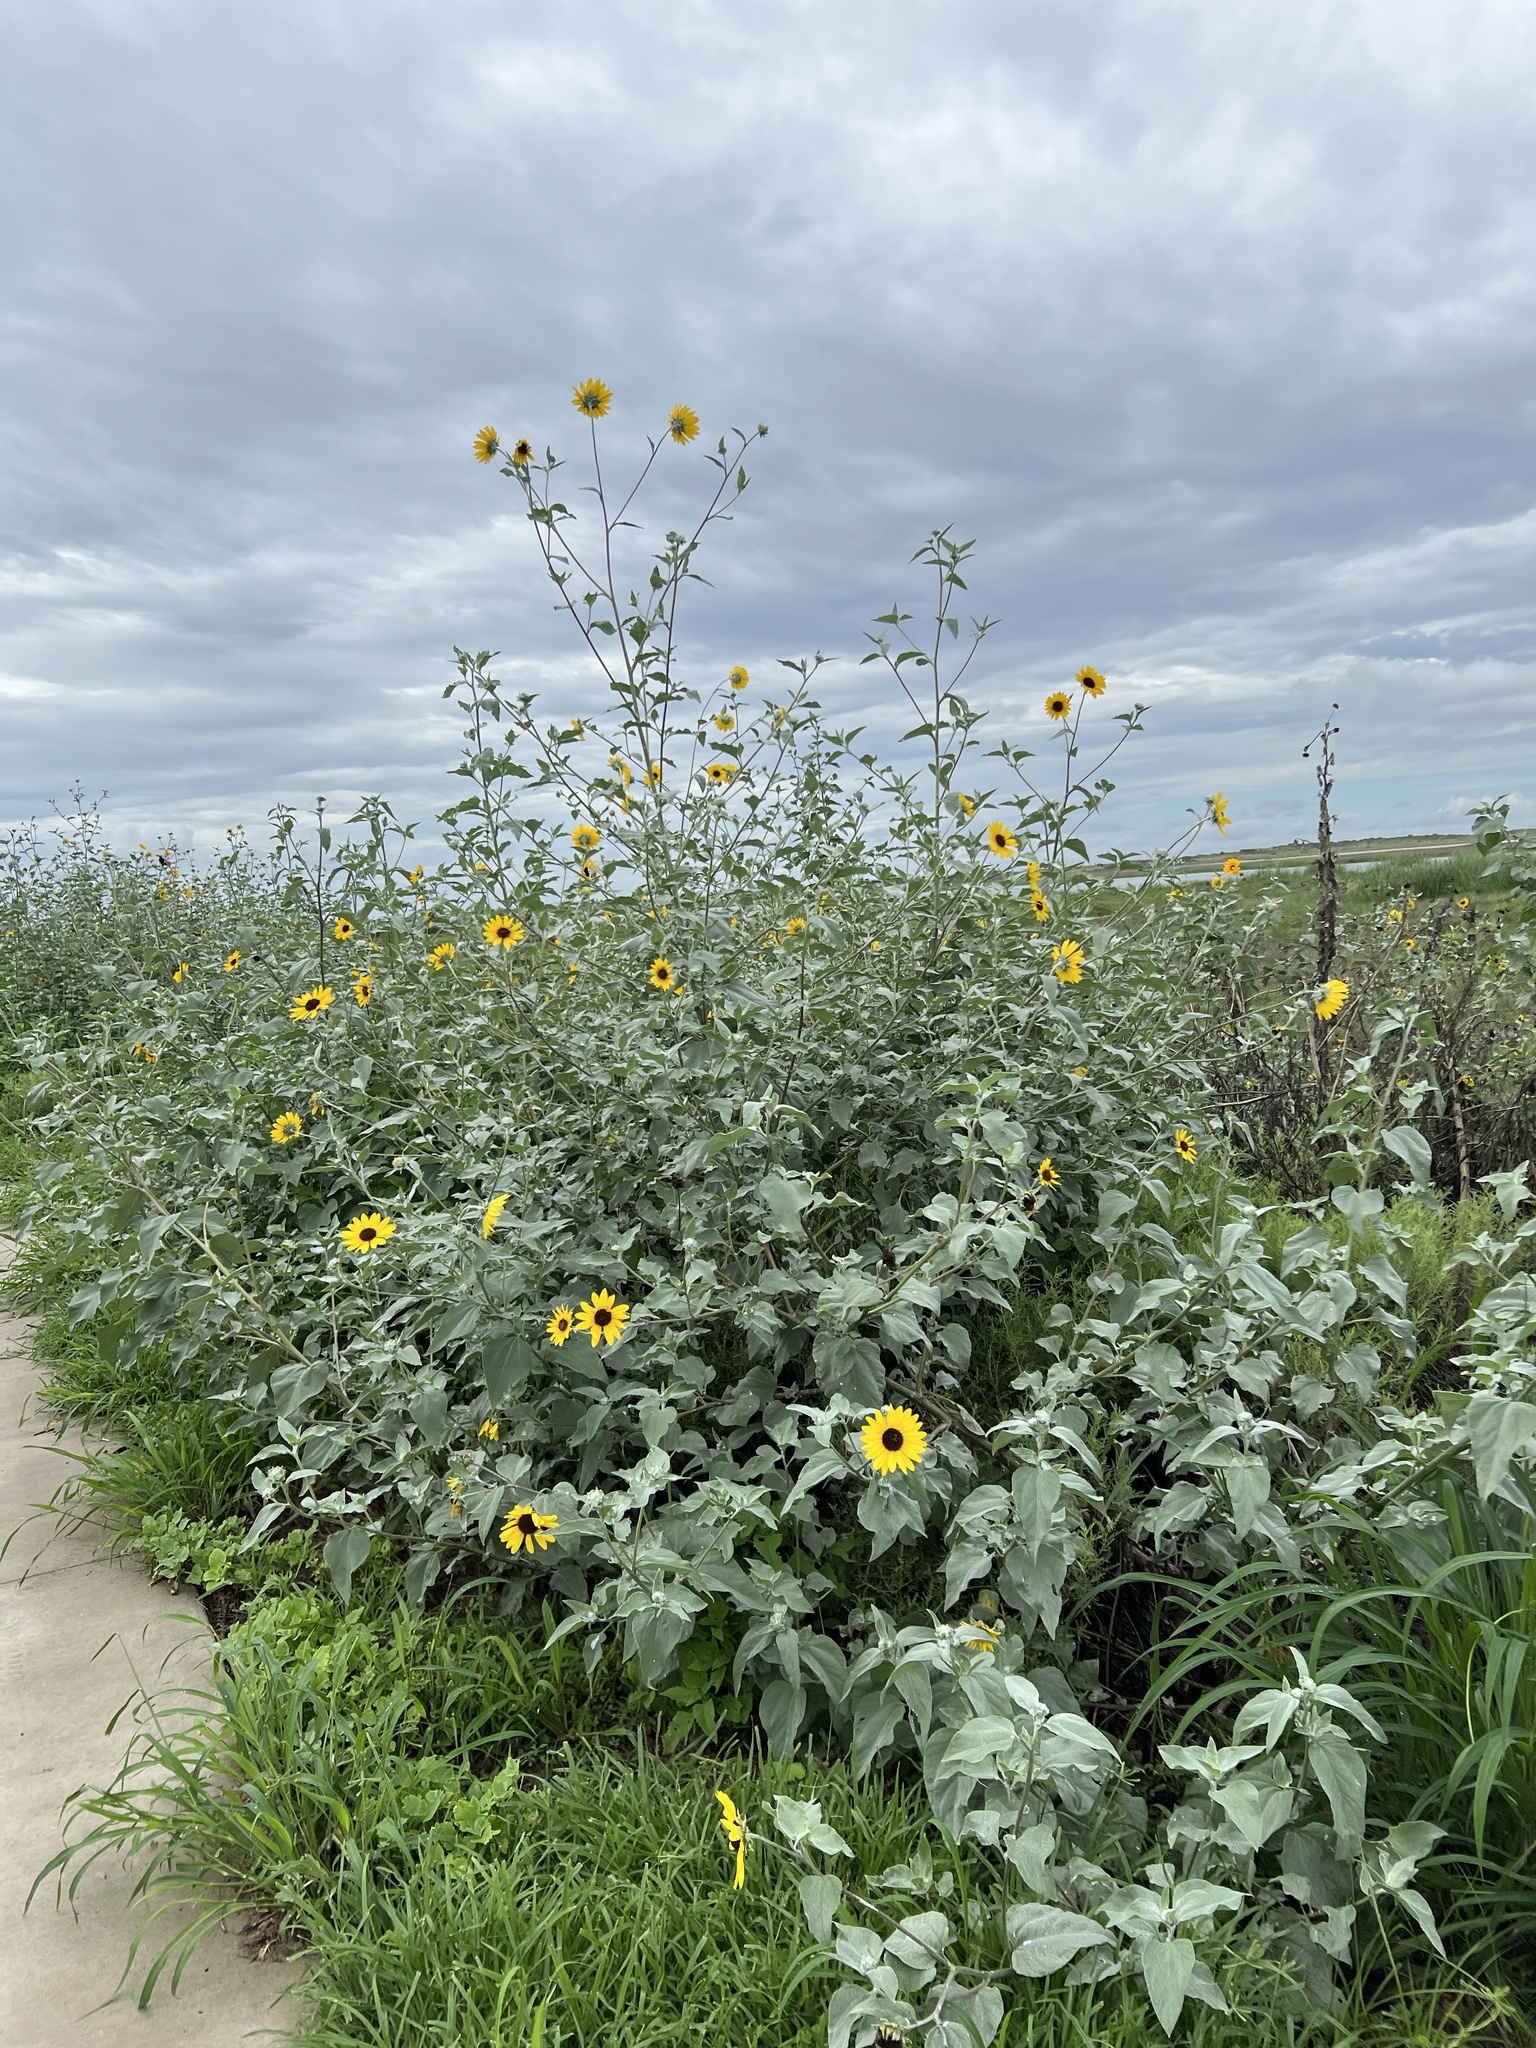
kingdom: Plantae
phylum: Tracheophyta
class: Magnoliopsida
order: Asterales
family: Asteraceae
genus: Helianthus
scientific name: Helianthus argophyllus
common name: Silverleaf sunflower
